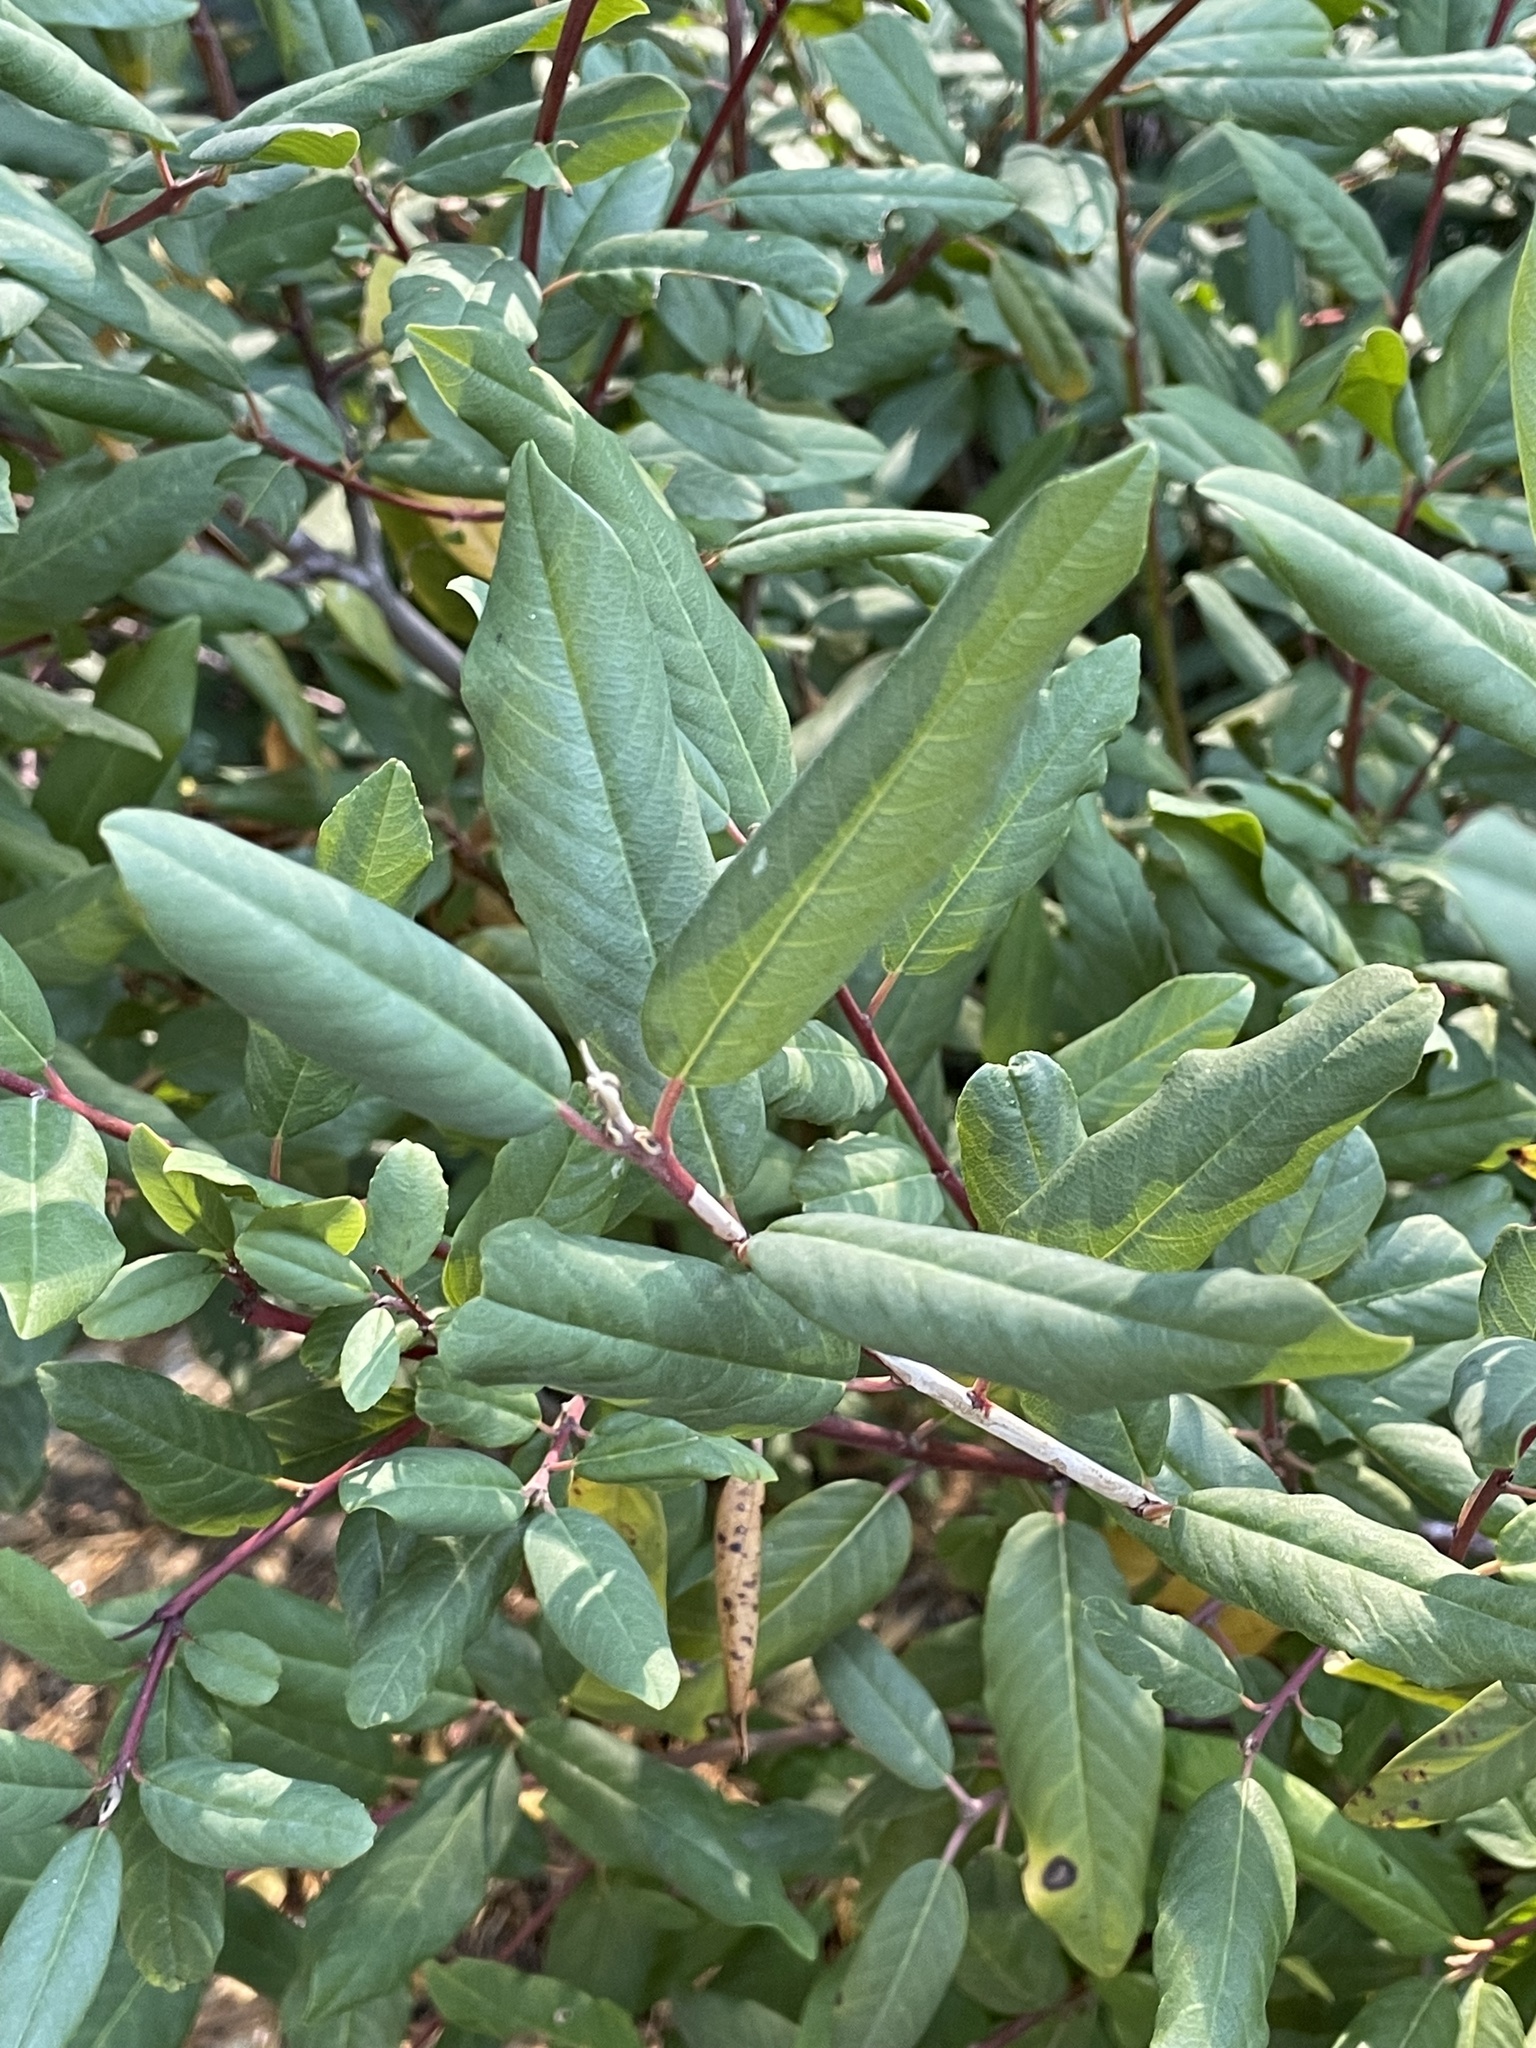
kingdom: Plantae
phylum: Tracheophyta
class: Magnoliopsida
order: Rosales
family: Rhamnaceae
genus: Frangula
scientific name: Frangula californica
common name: California buckthorn
